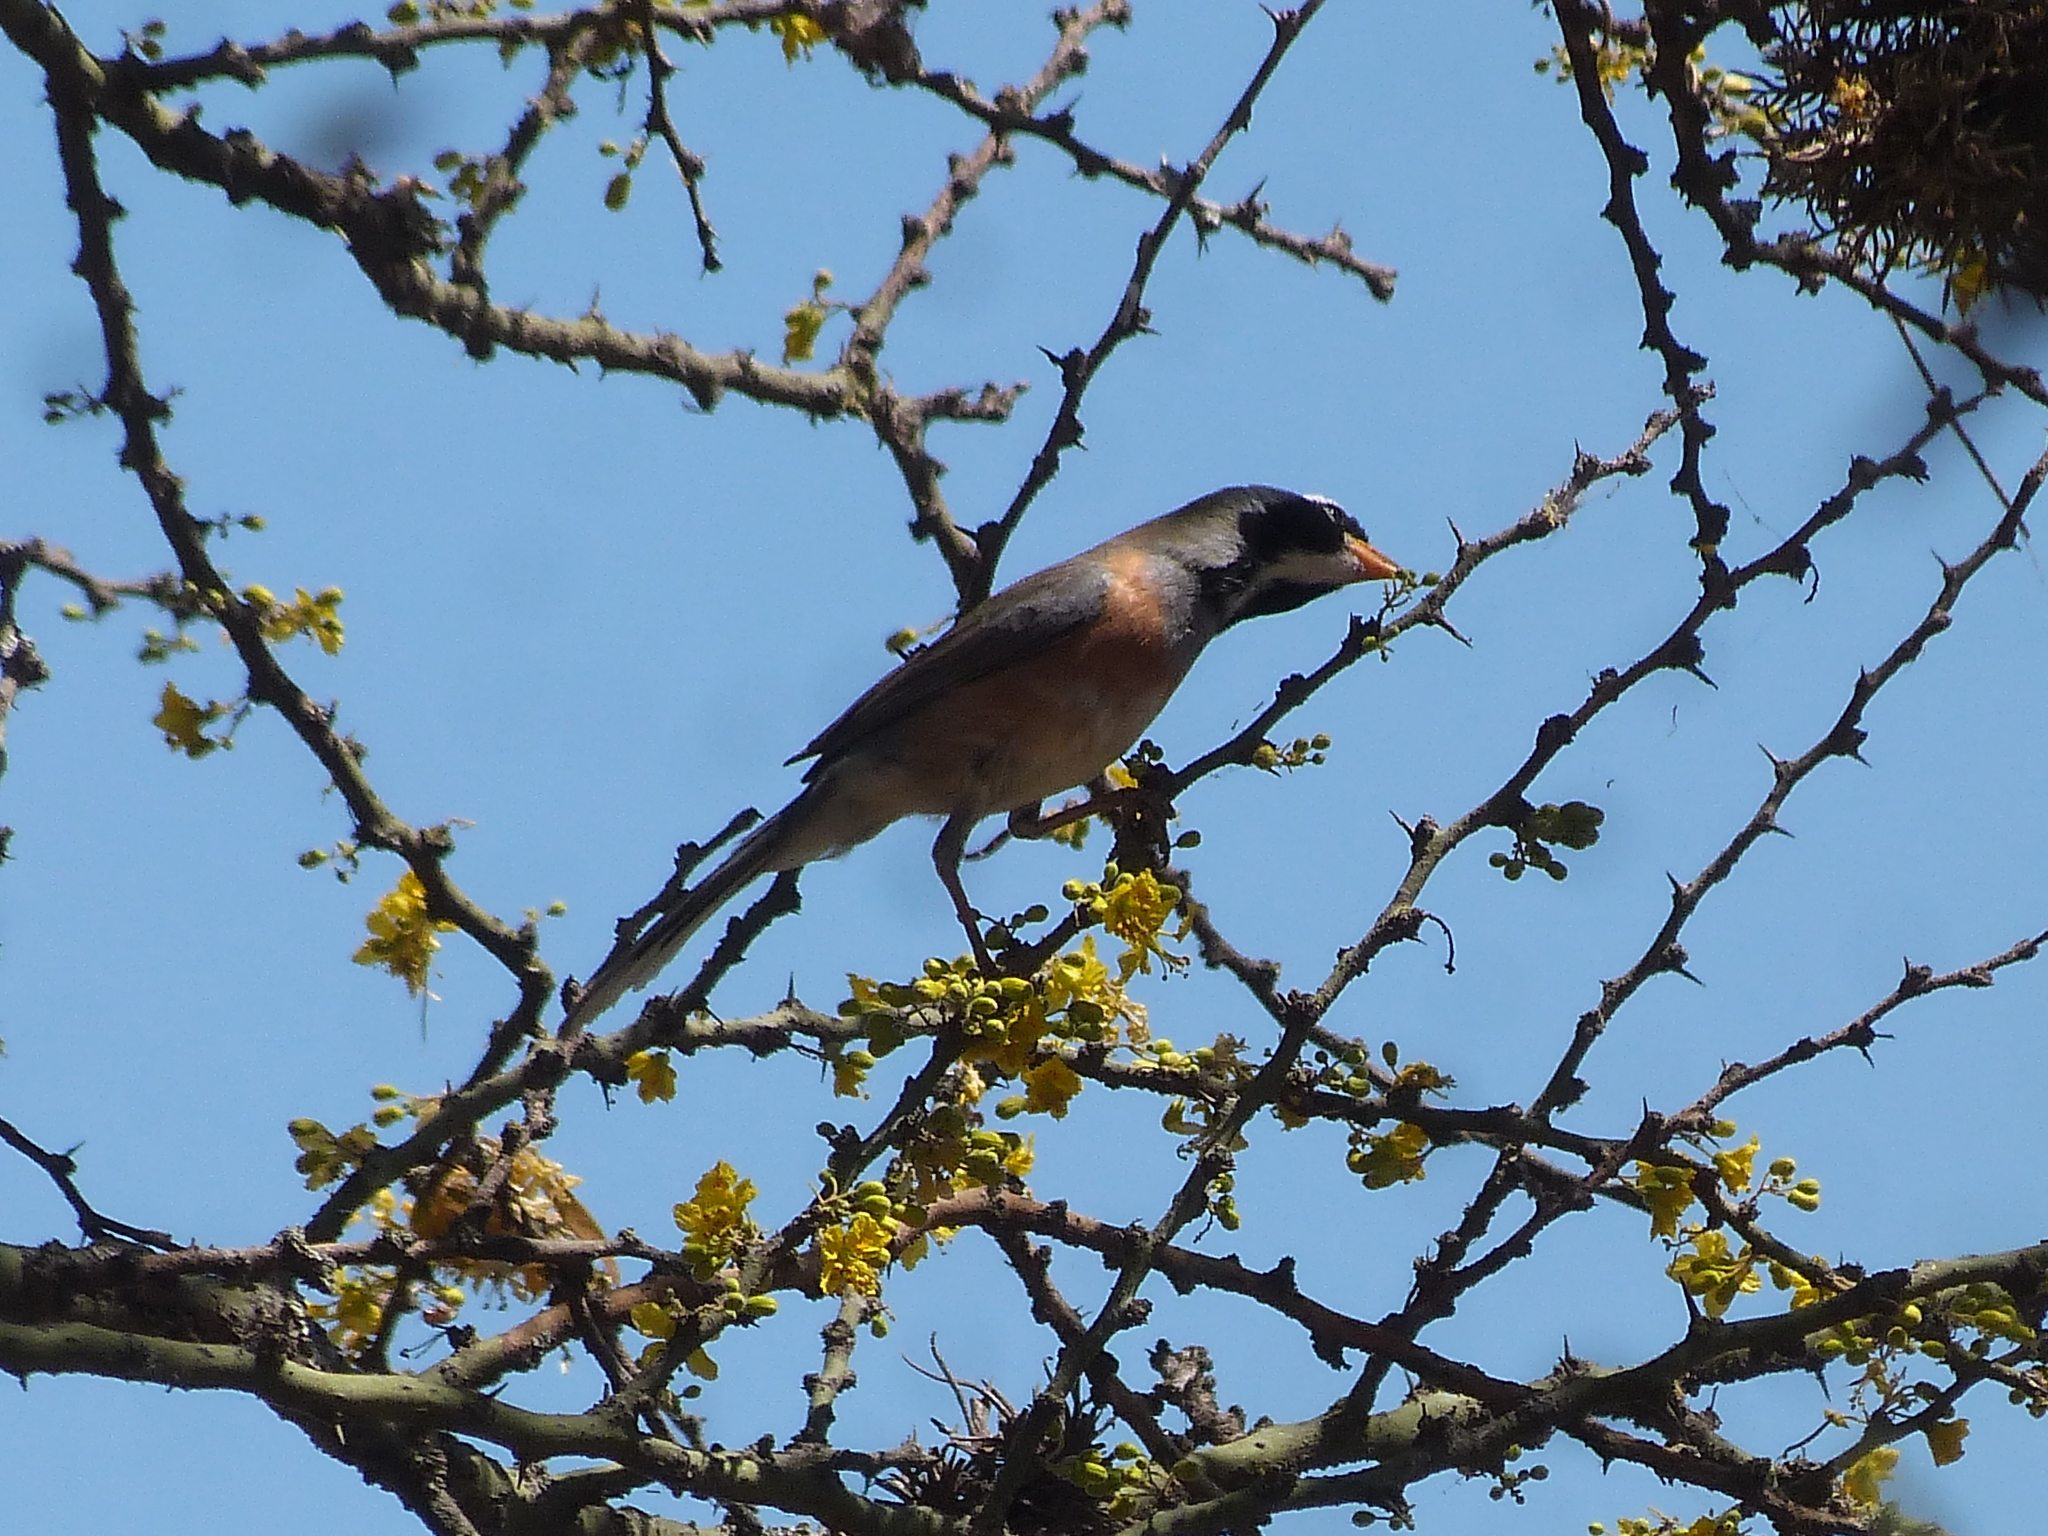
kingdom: Animalia
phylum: Chordata
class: Aves
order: Passeriformes
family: Thraupidae
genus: Saltatricula
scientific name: Saltatricula multicolor
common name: Many-colored chaco finch
